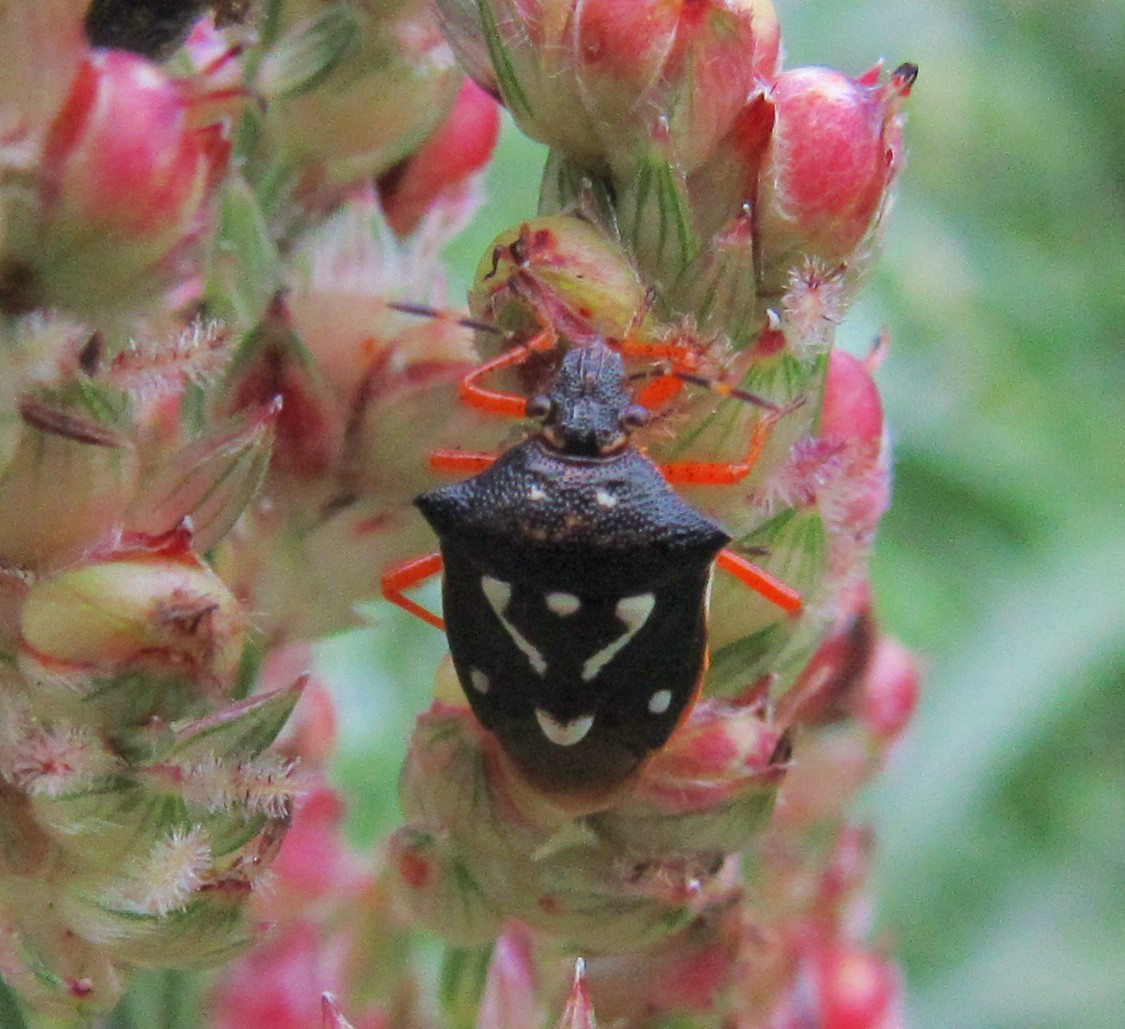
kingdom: Animalia
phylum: Arthropoda
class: Insecta
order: Hemiptera
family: Pentatomidae
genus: Mormidea
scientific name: Mormidea v-luteum
